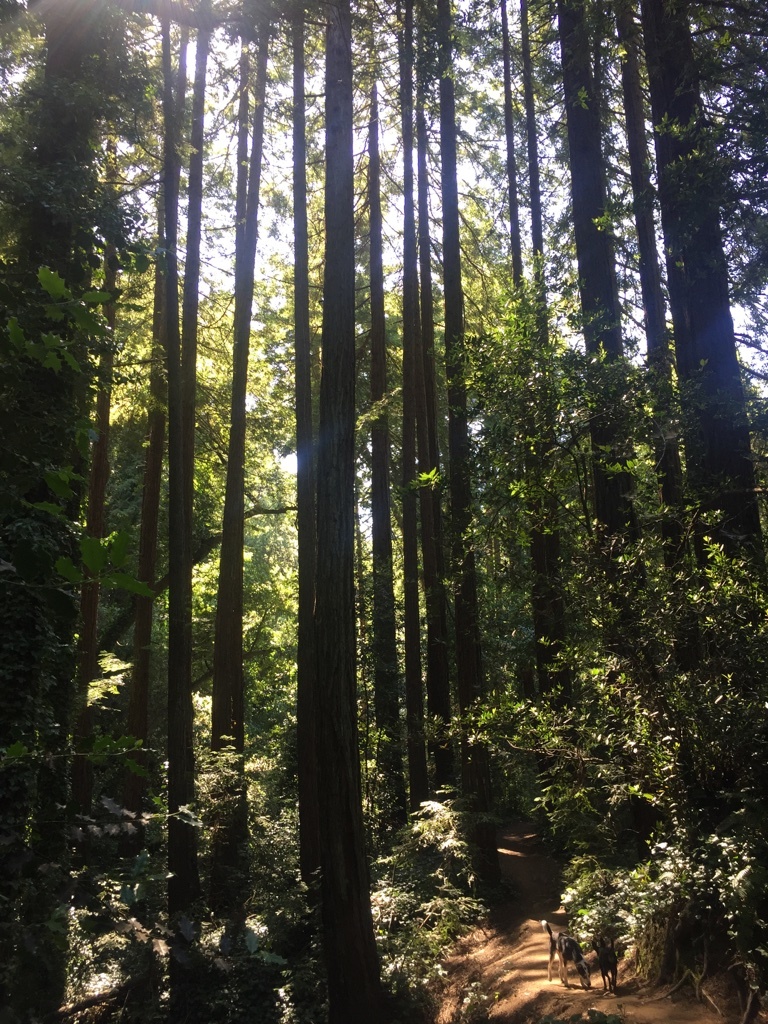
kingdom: Plantae
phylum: Tracheophyta
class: Pinopsida
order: Pinales
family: Cupressaceae
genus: Sequoia
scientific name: Sequoia sempervirens
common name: Coast redwood
